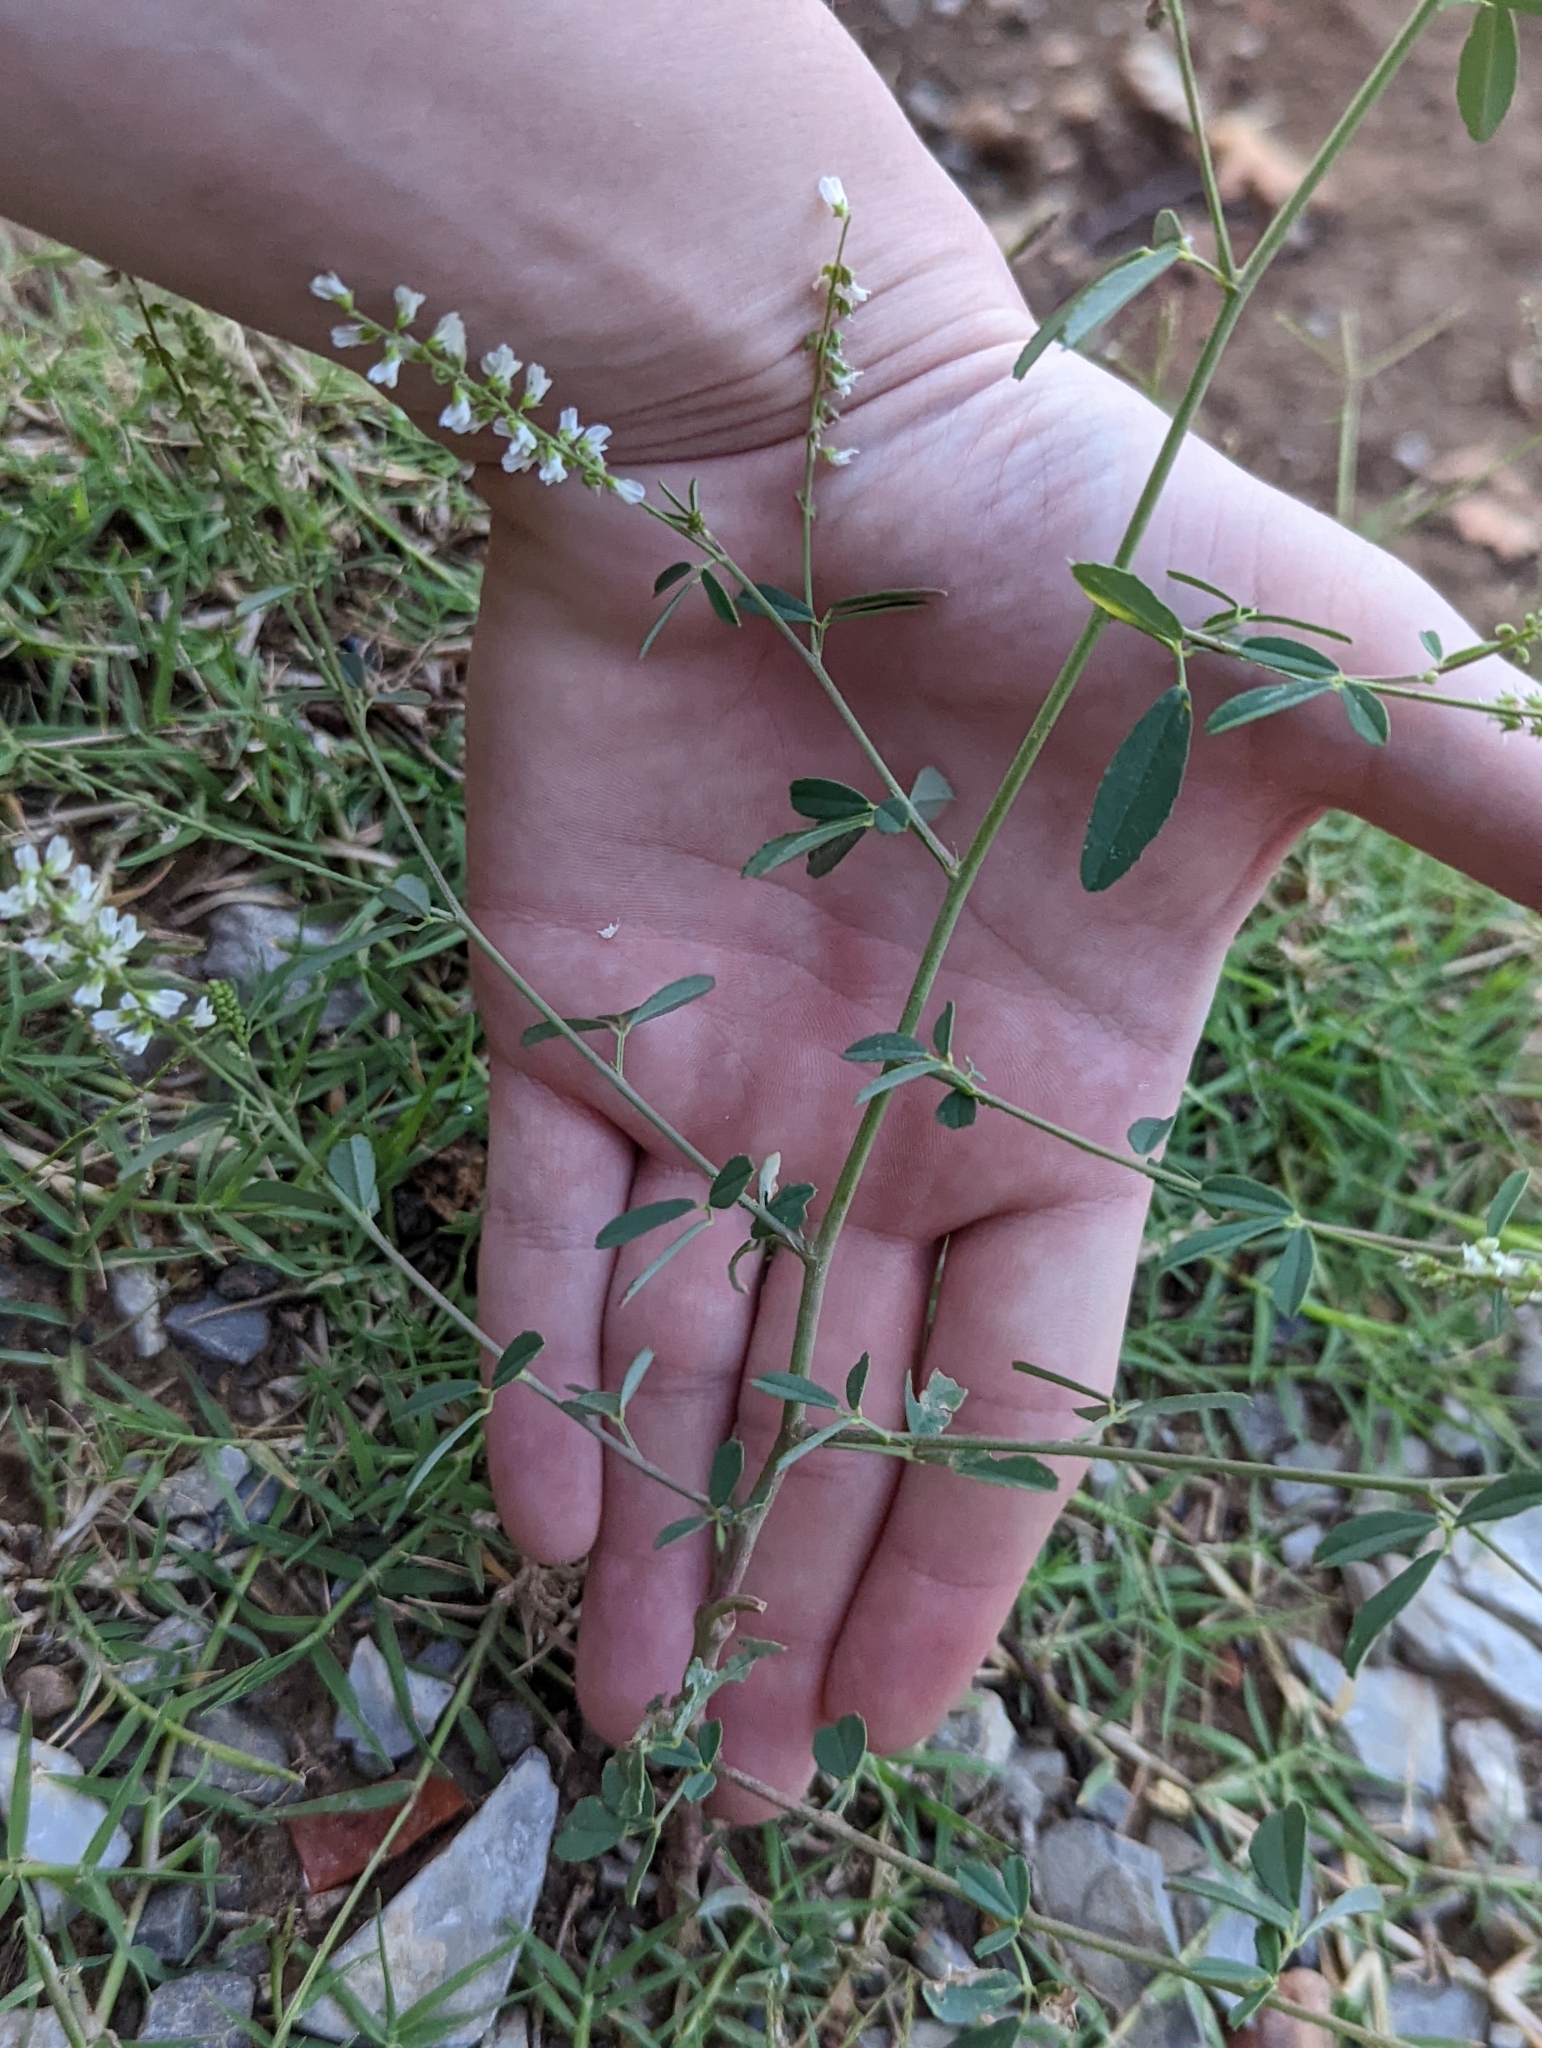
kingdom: Plantae
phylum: Tracheophyta
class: Magnoliopsida
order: Fabales
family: Fabaceae
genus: Melilotus
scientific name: Melilotus albus
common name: White melilot
